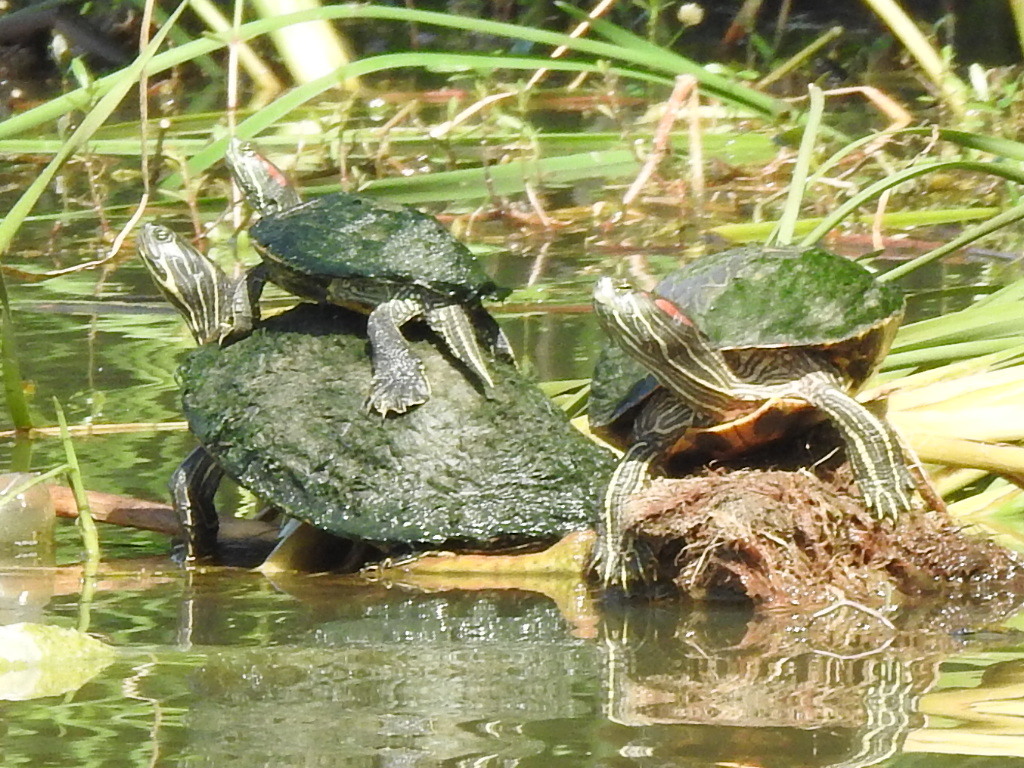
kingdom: Animalia
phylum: Chordata
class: Testudines
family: Emydidae
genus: Trachemys
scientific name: Trachemys scripta
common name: Slider
